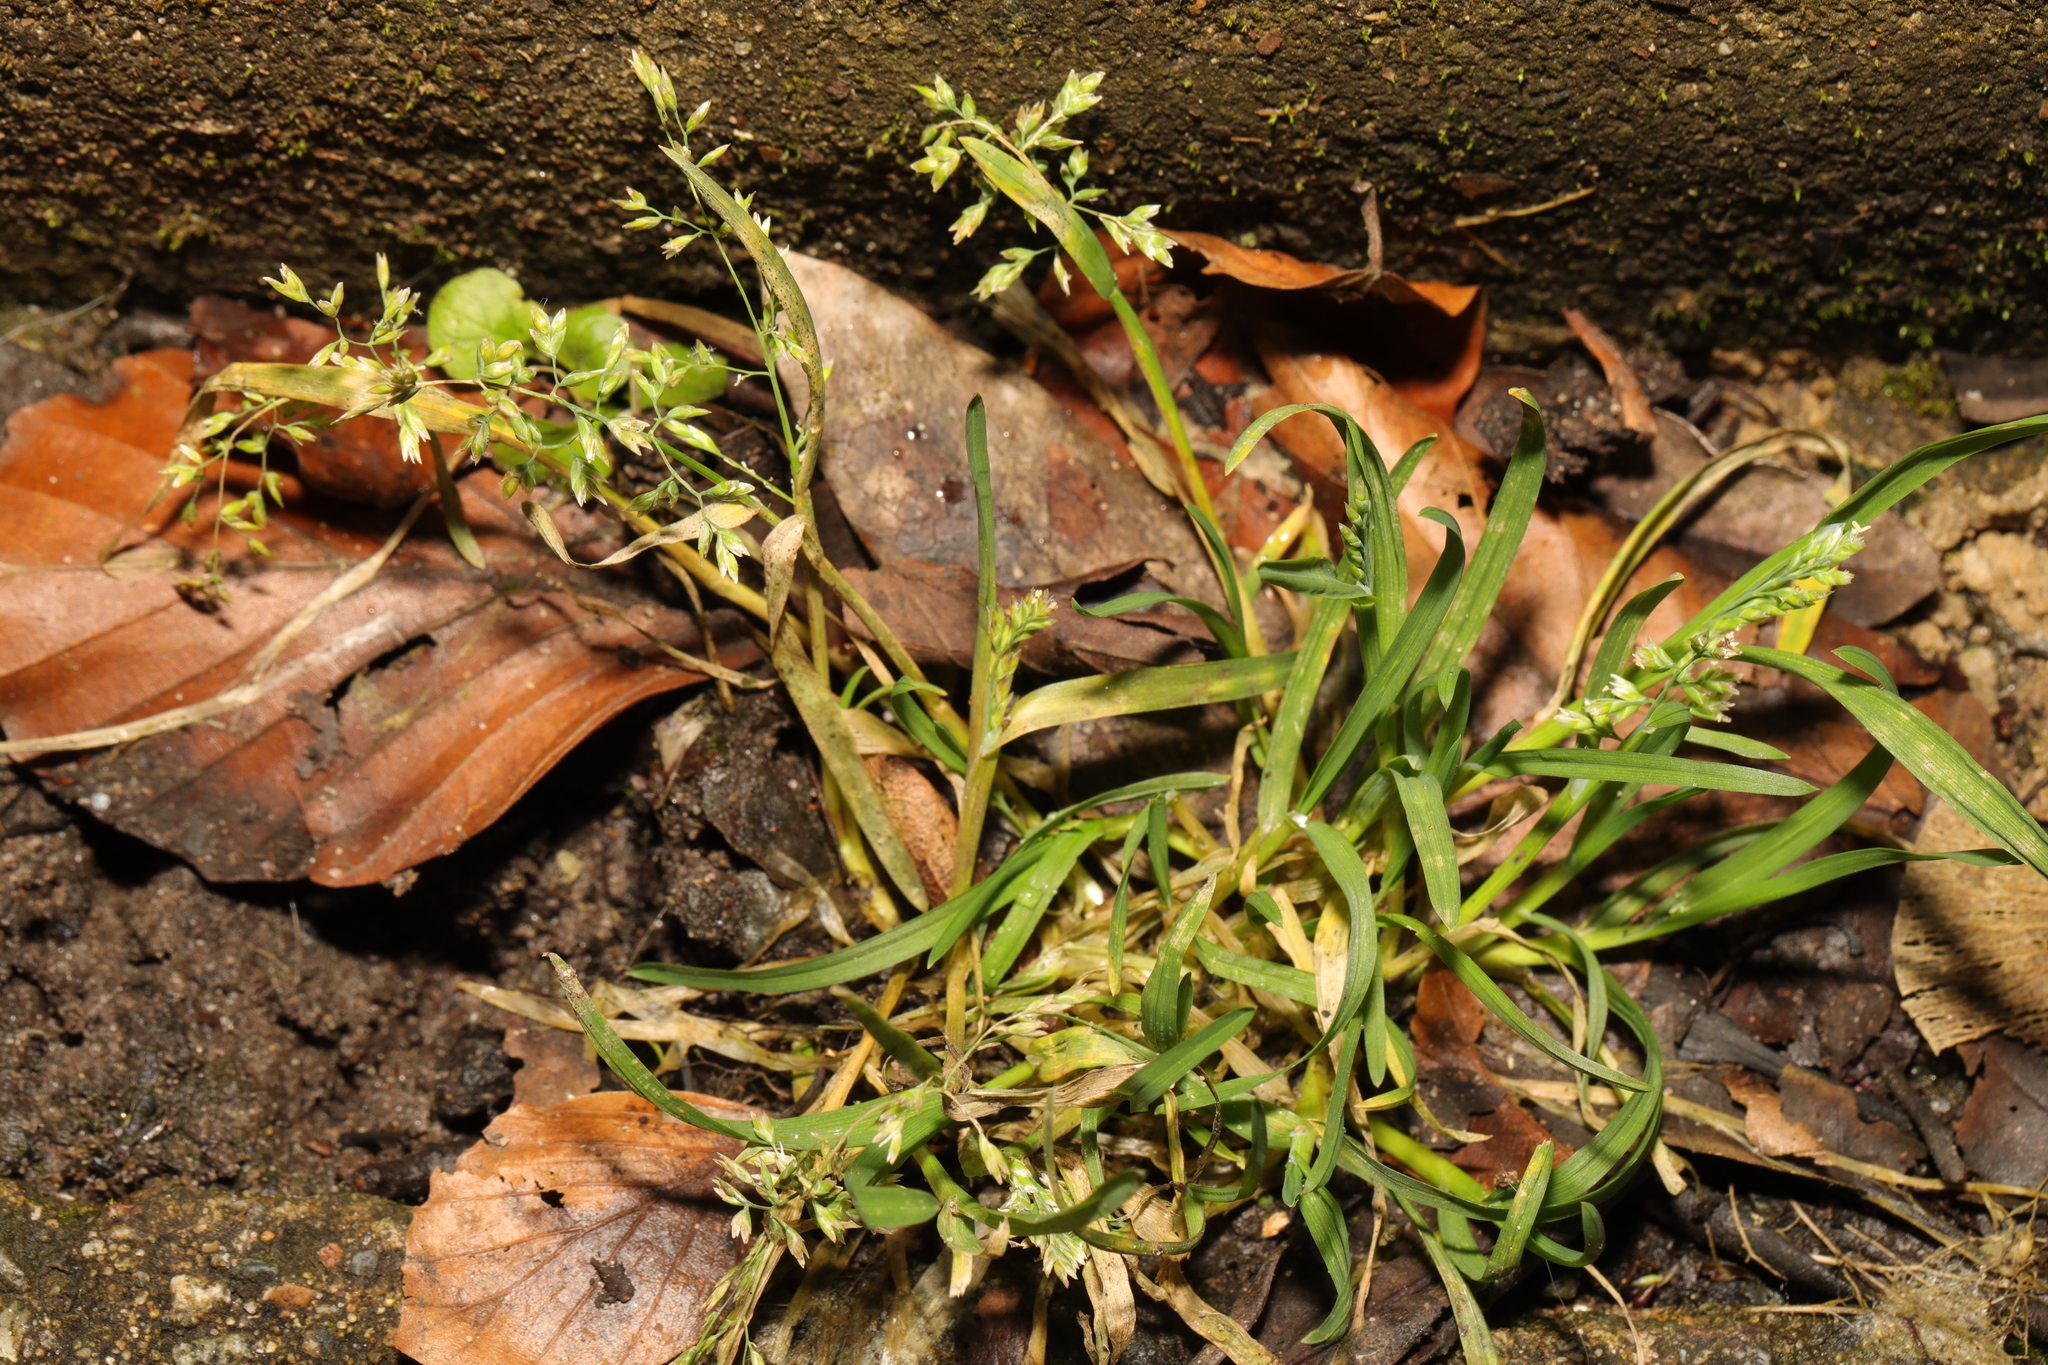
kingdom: Plantae
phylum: Tracheophyta
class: Liliopsida
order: Poales
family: Poaceae
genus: Poa
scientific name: Poa annua
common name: Annual bluegrass
